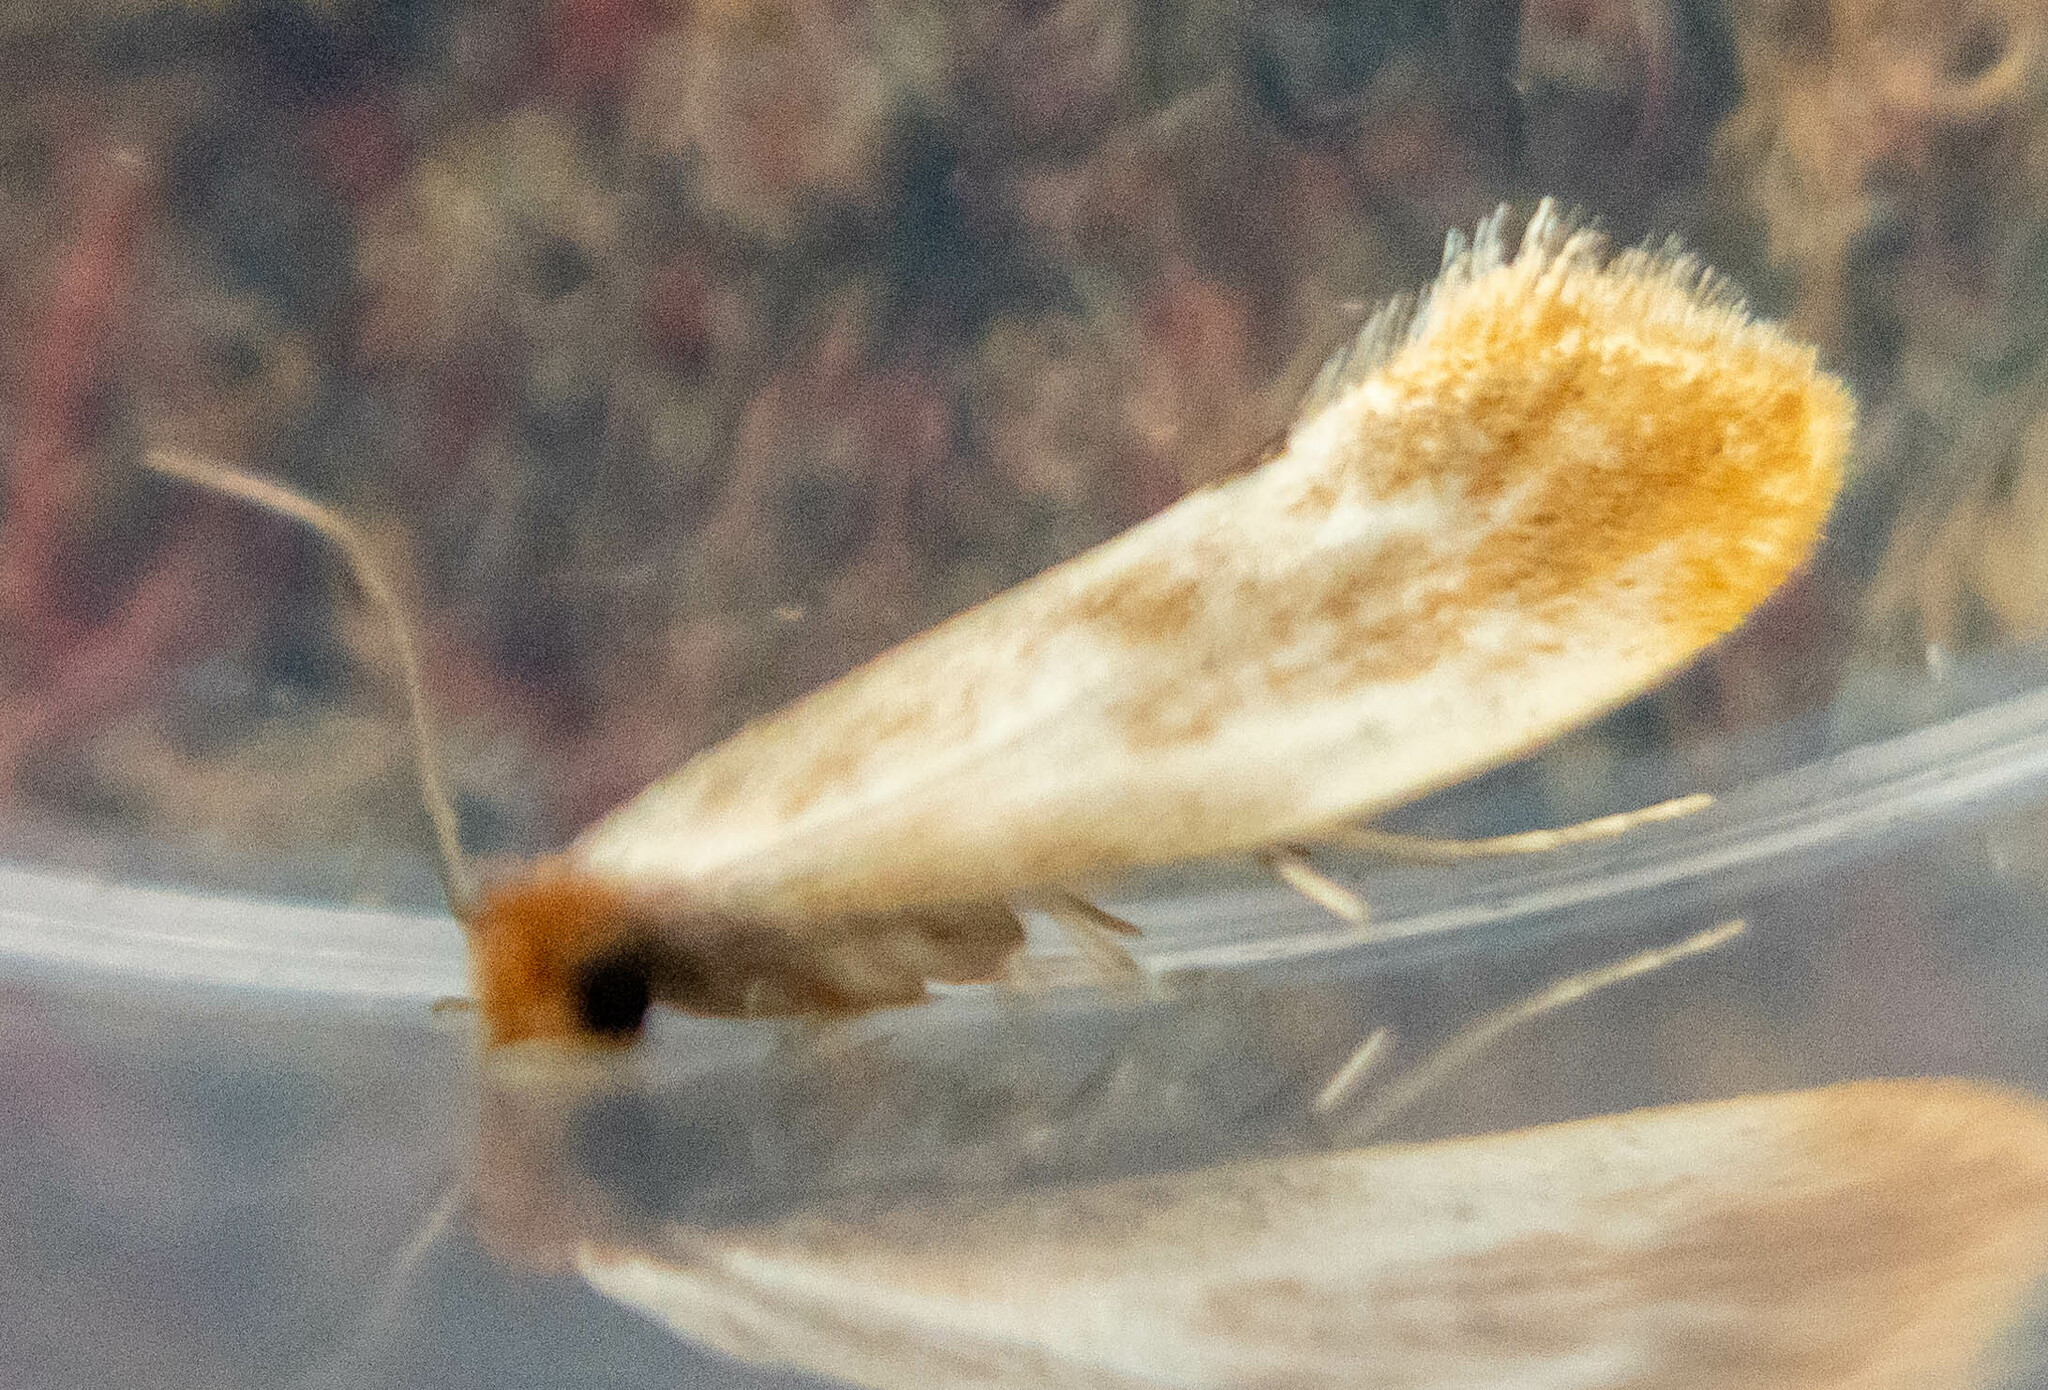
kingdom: Animalia
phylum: Arthropoda
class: Insecta
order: Lepidoptera
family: Tineidae
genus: Tinea
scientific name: Tinea semifulvella
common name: Fulvous clothes
